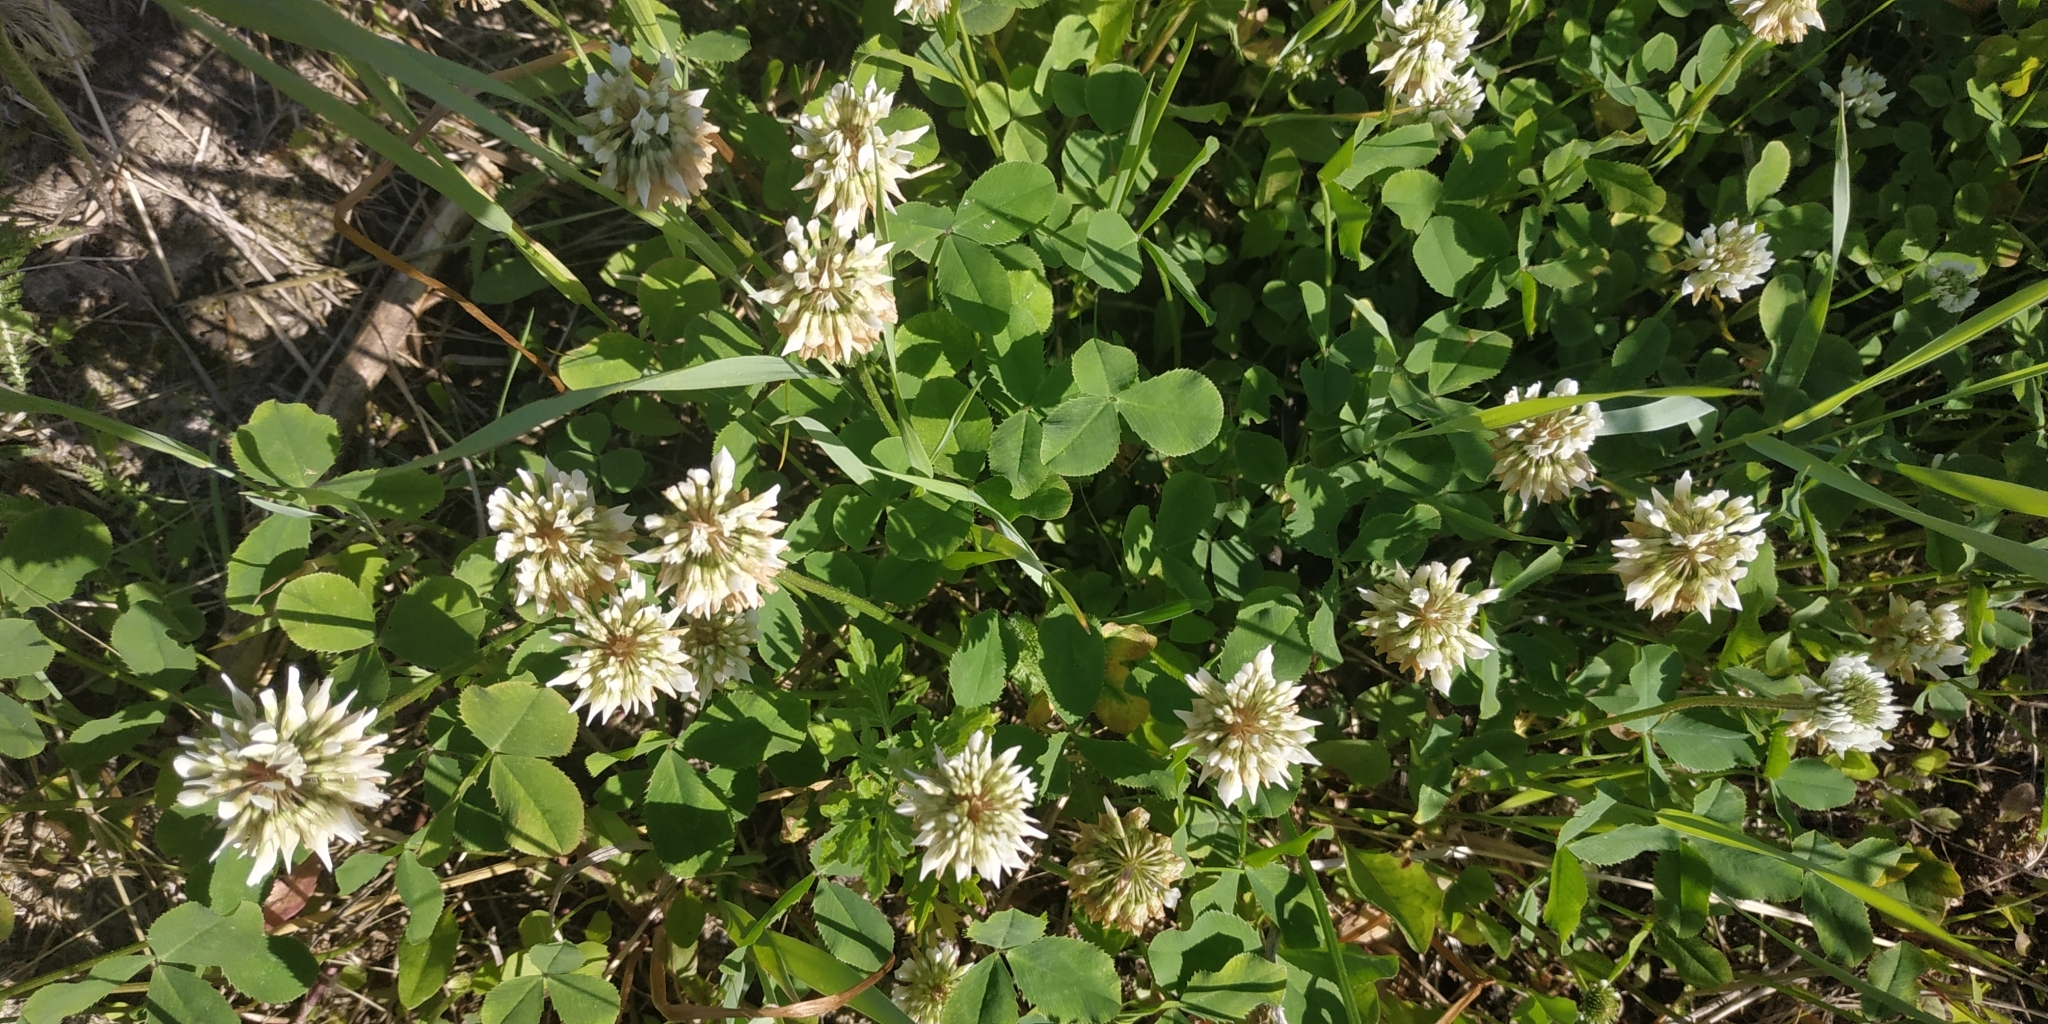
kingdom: Plantae
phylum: Tracheophyta
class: Magnoliopsida
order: Fabales
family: Fabaceae
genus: Trifolium
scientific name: Trifolium repens
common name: White clover
